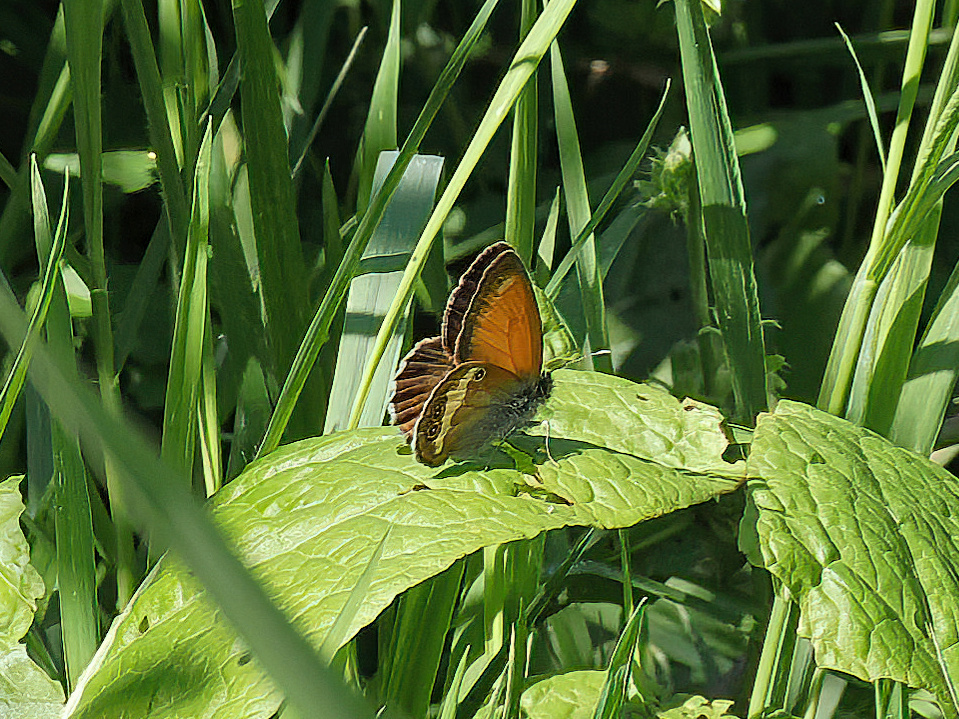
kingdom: Animalia
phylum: Arthropoda
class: Insecta
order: Lepidoptera
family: Nymphalidae
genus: Coenonympha
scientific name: Coenonympha arcania
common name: Pearly heath
